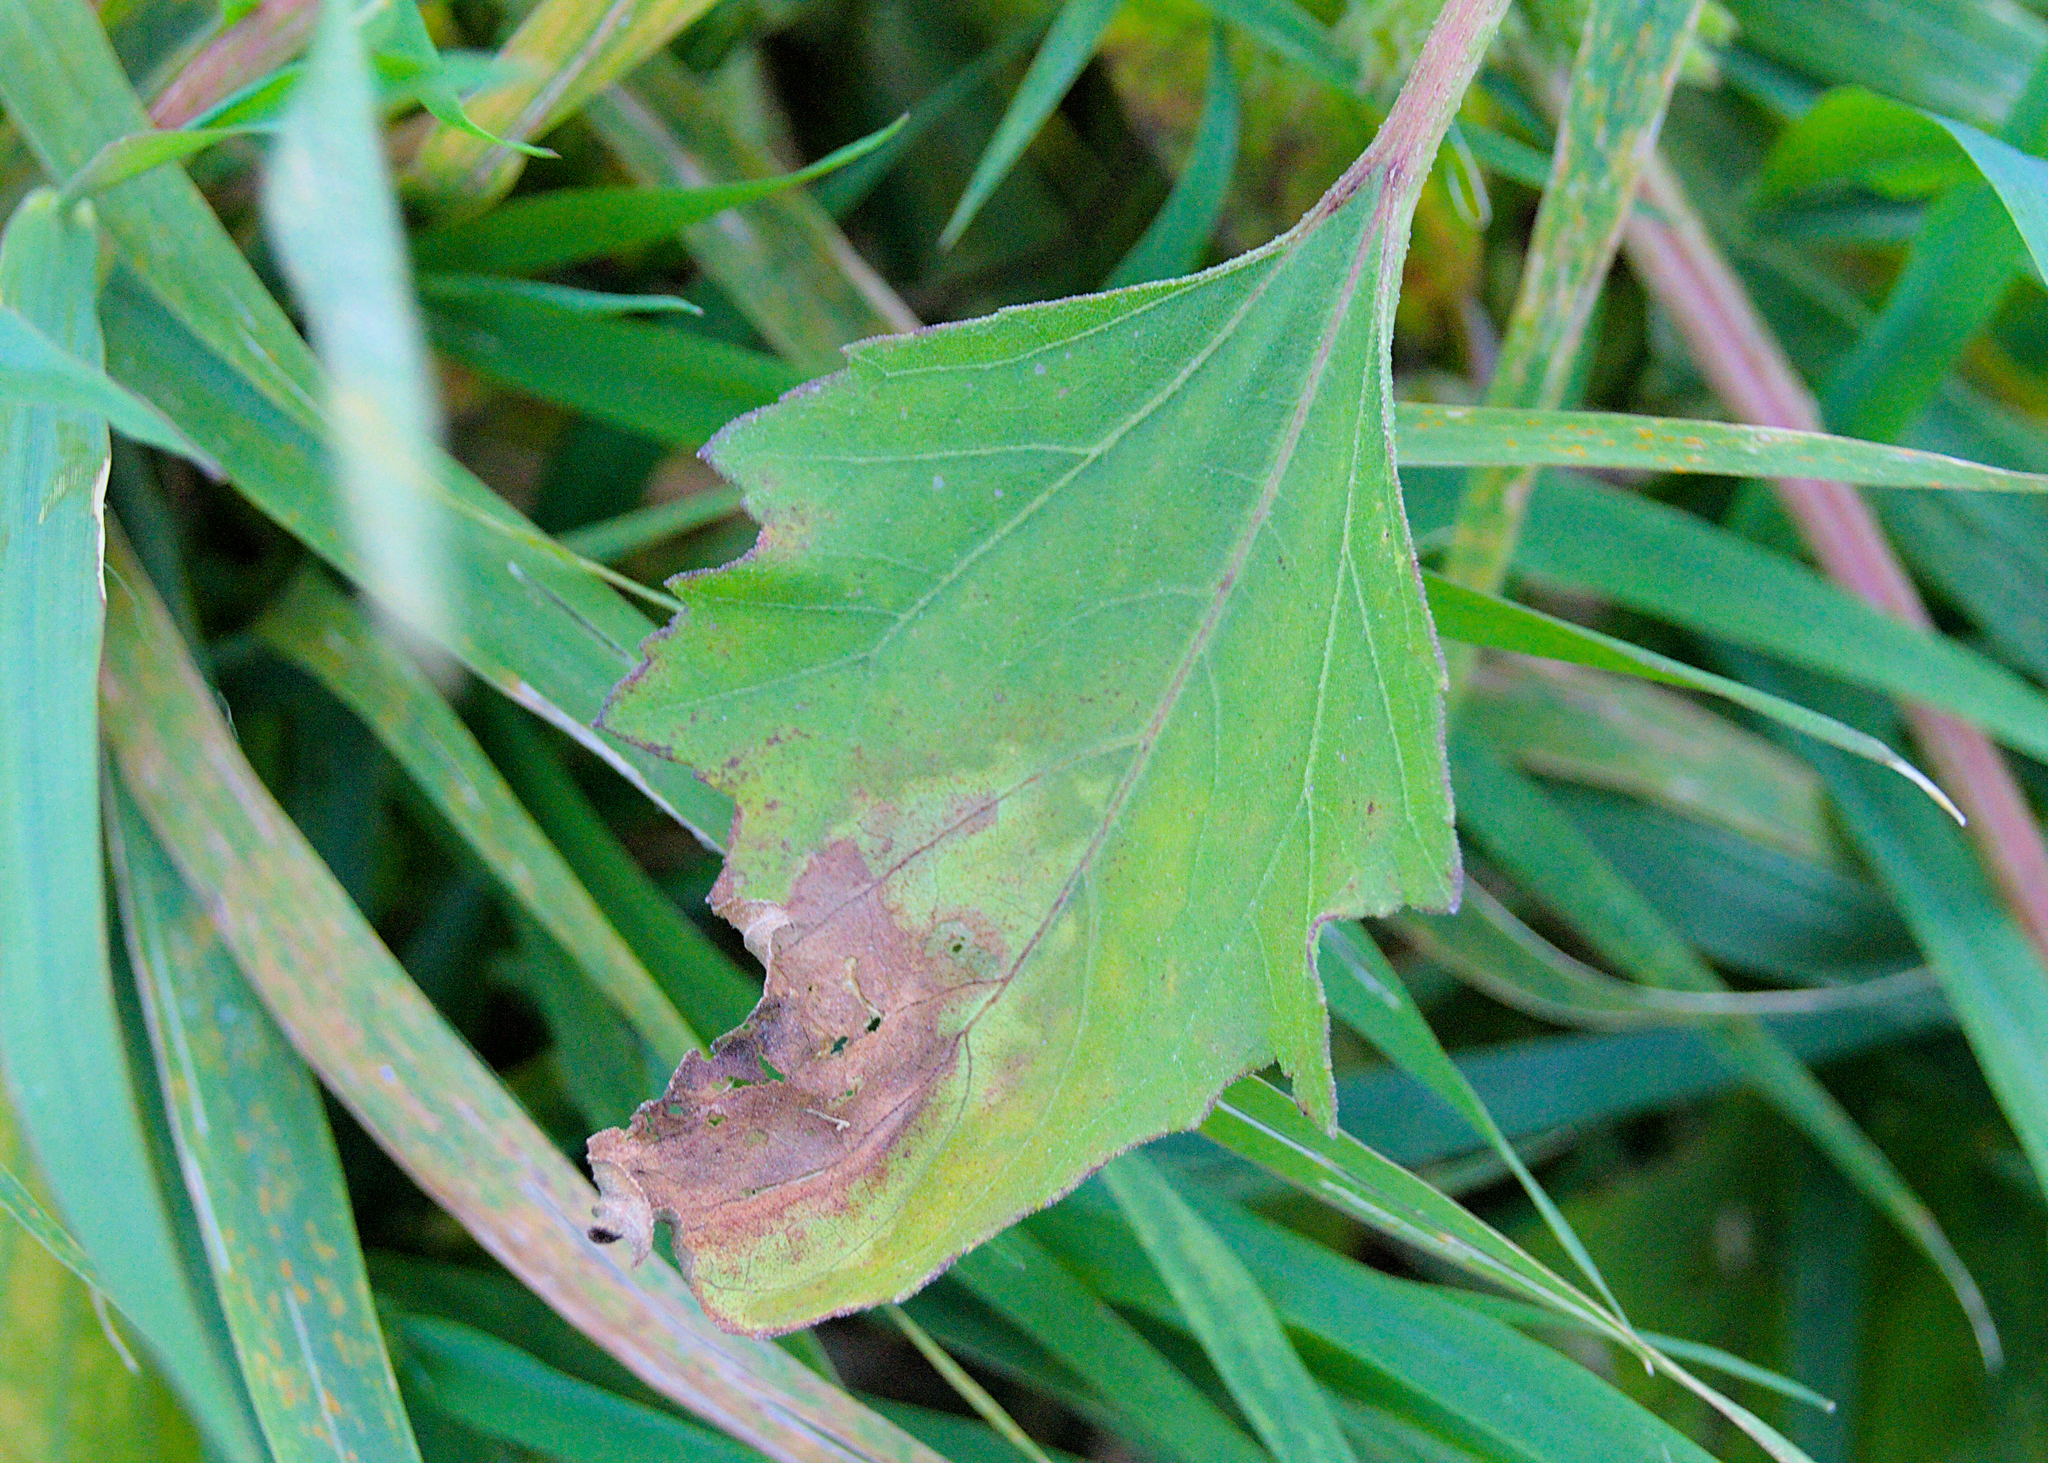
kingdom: Plantae
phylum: Tracheophyta
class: Magnoliopsida
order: Asterales
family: Asteraceae
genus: Xanthium
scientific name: Xanthium strumarium
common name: Rough cocklebur
